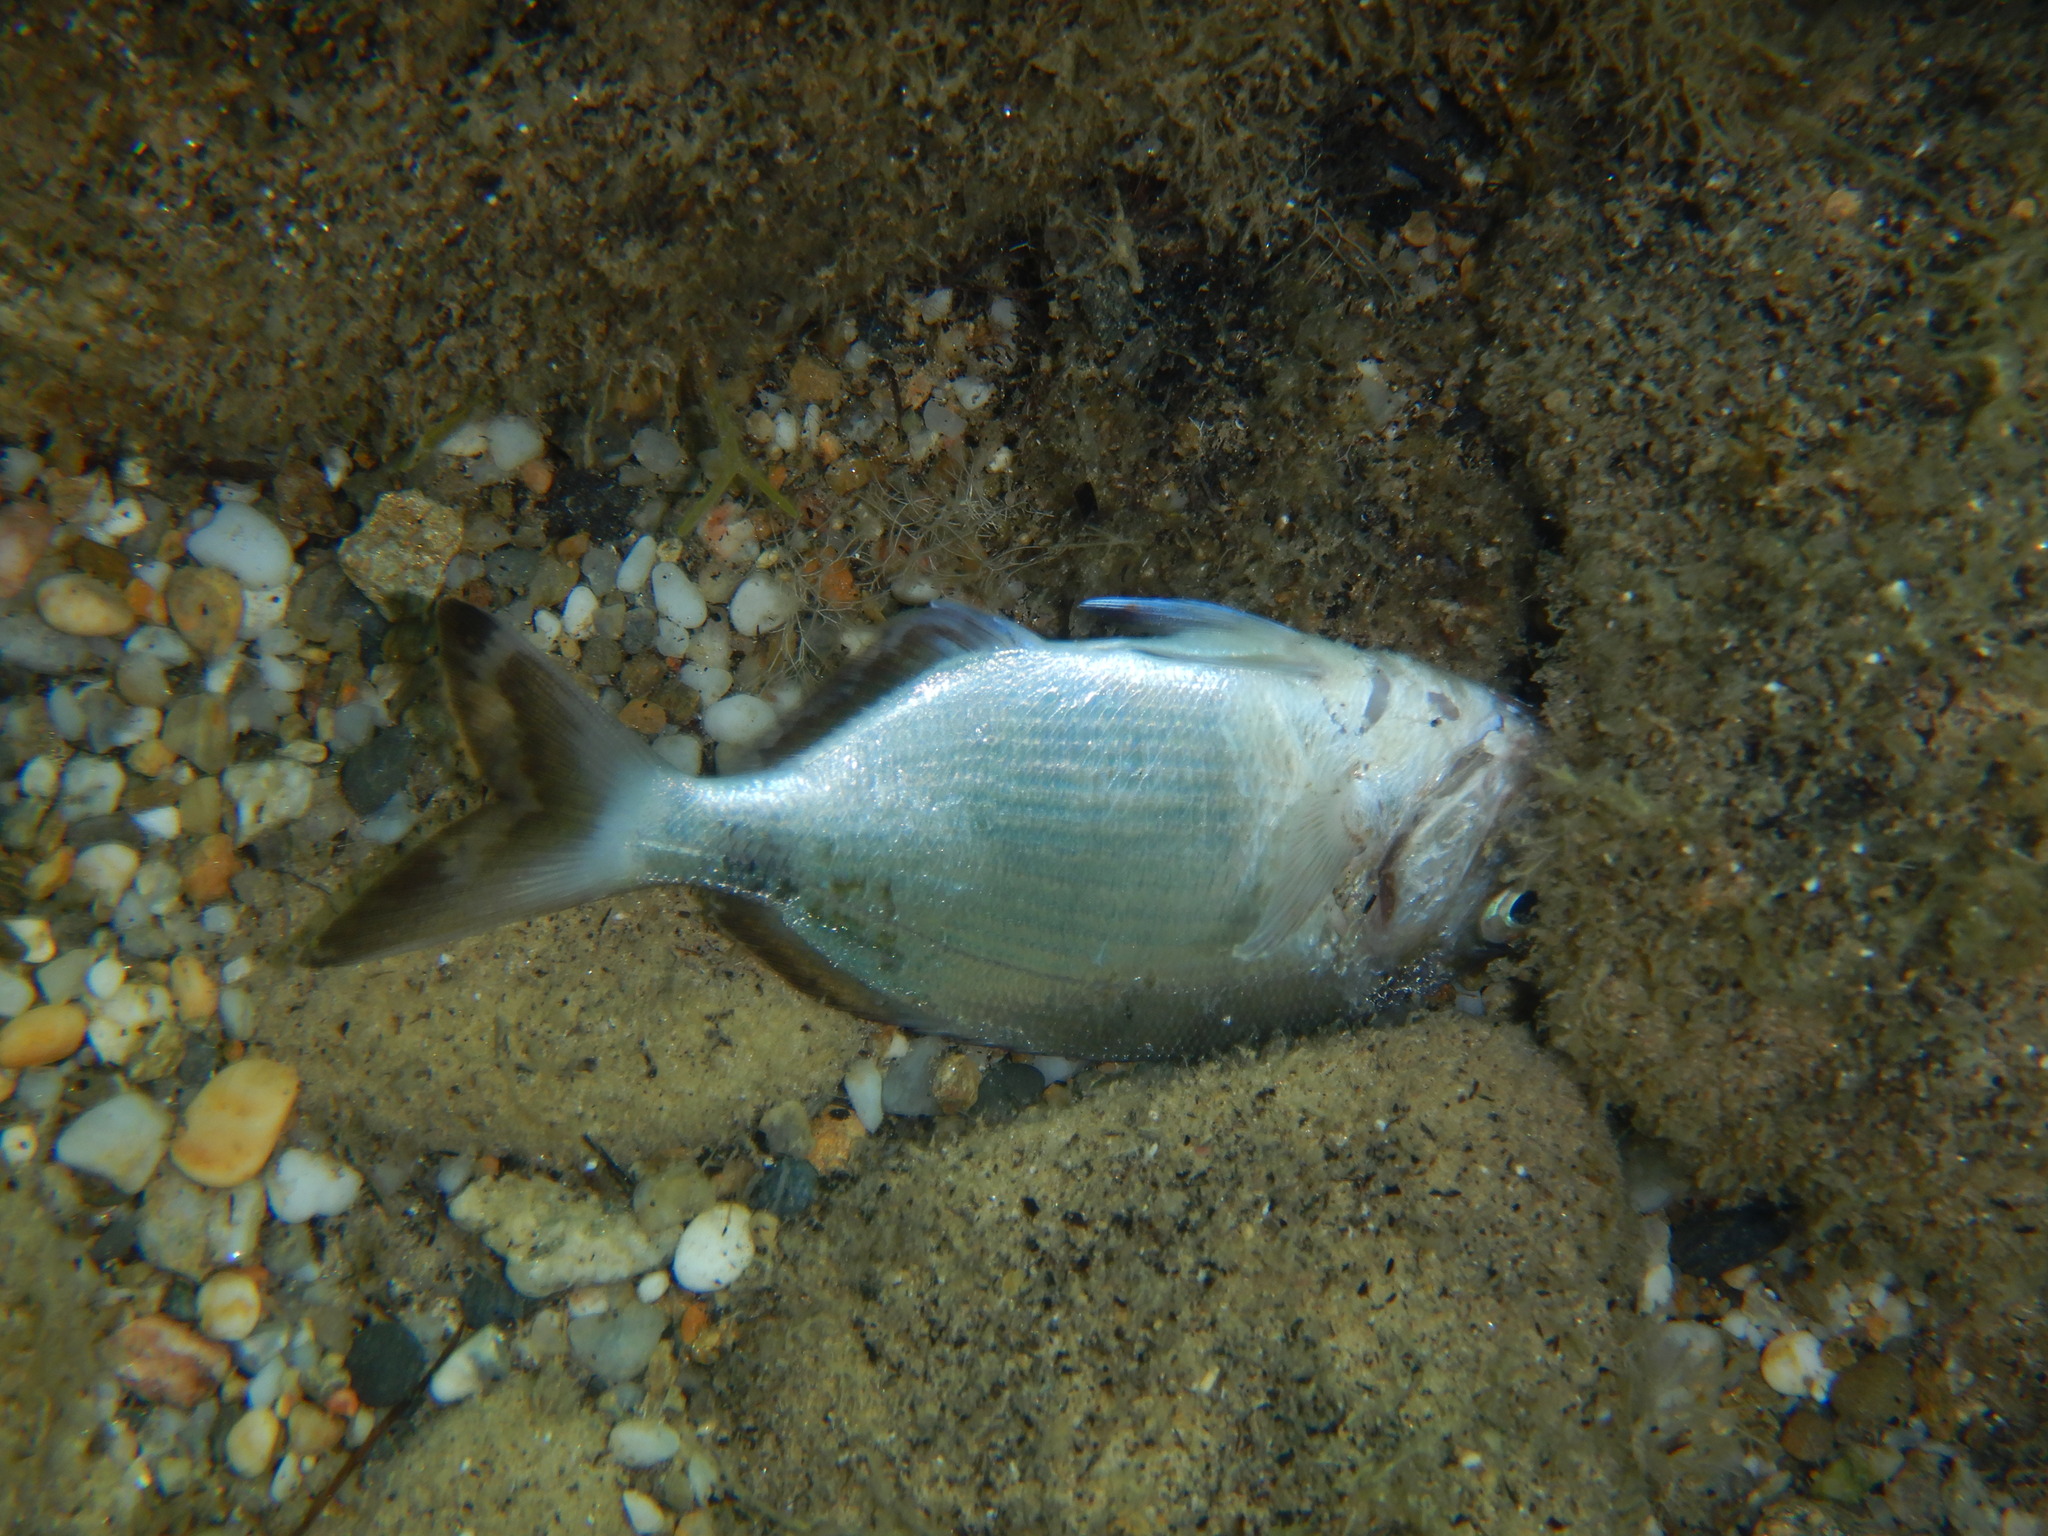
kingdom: Animalia
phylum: Chordata
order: Perciformes
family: Sparidae
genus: Diplodus
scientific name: Diplodus
